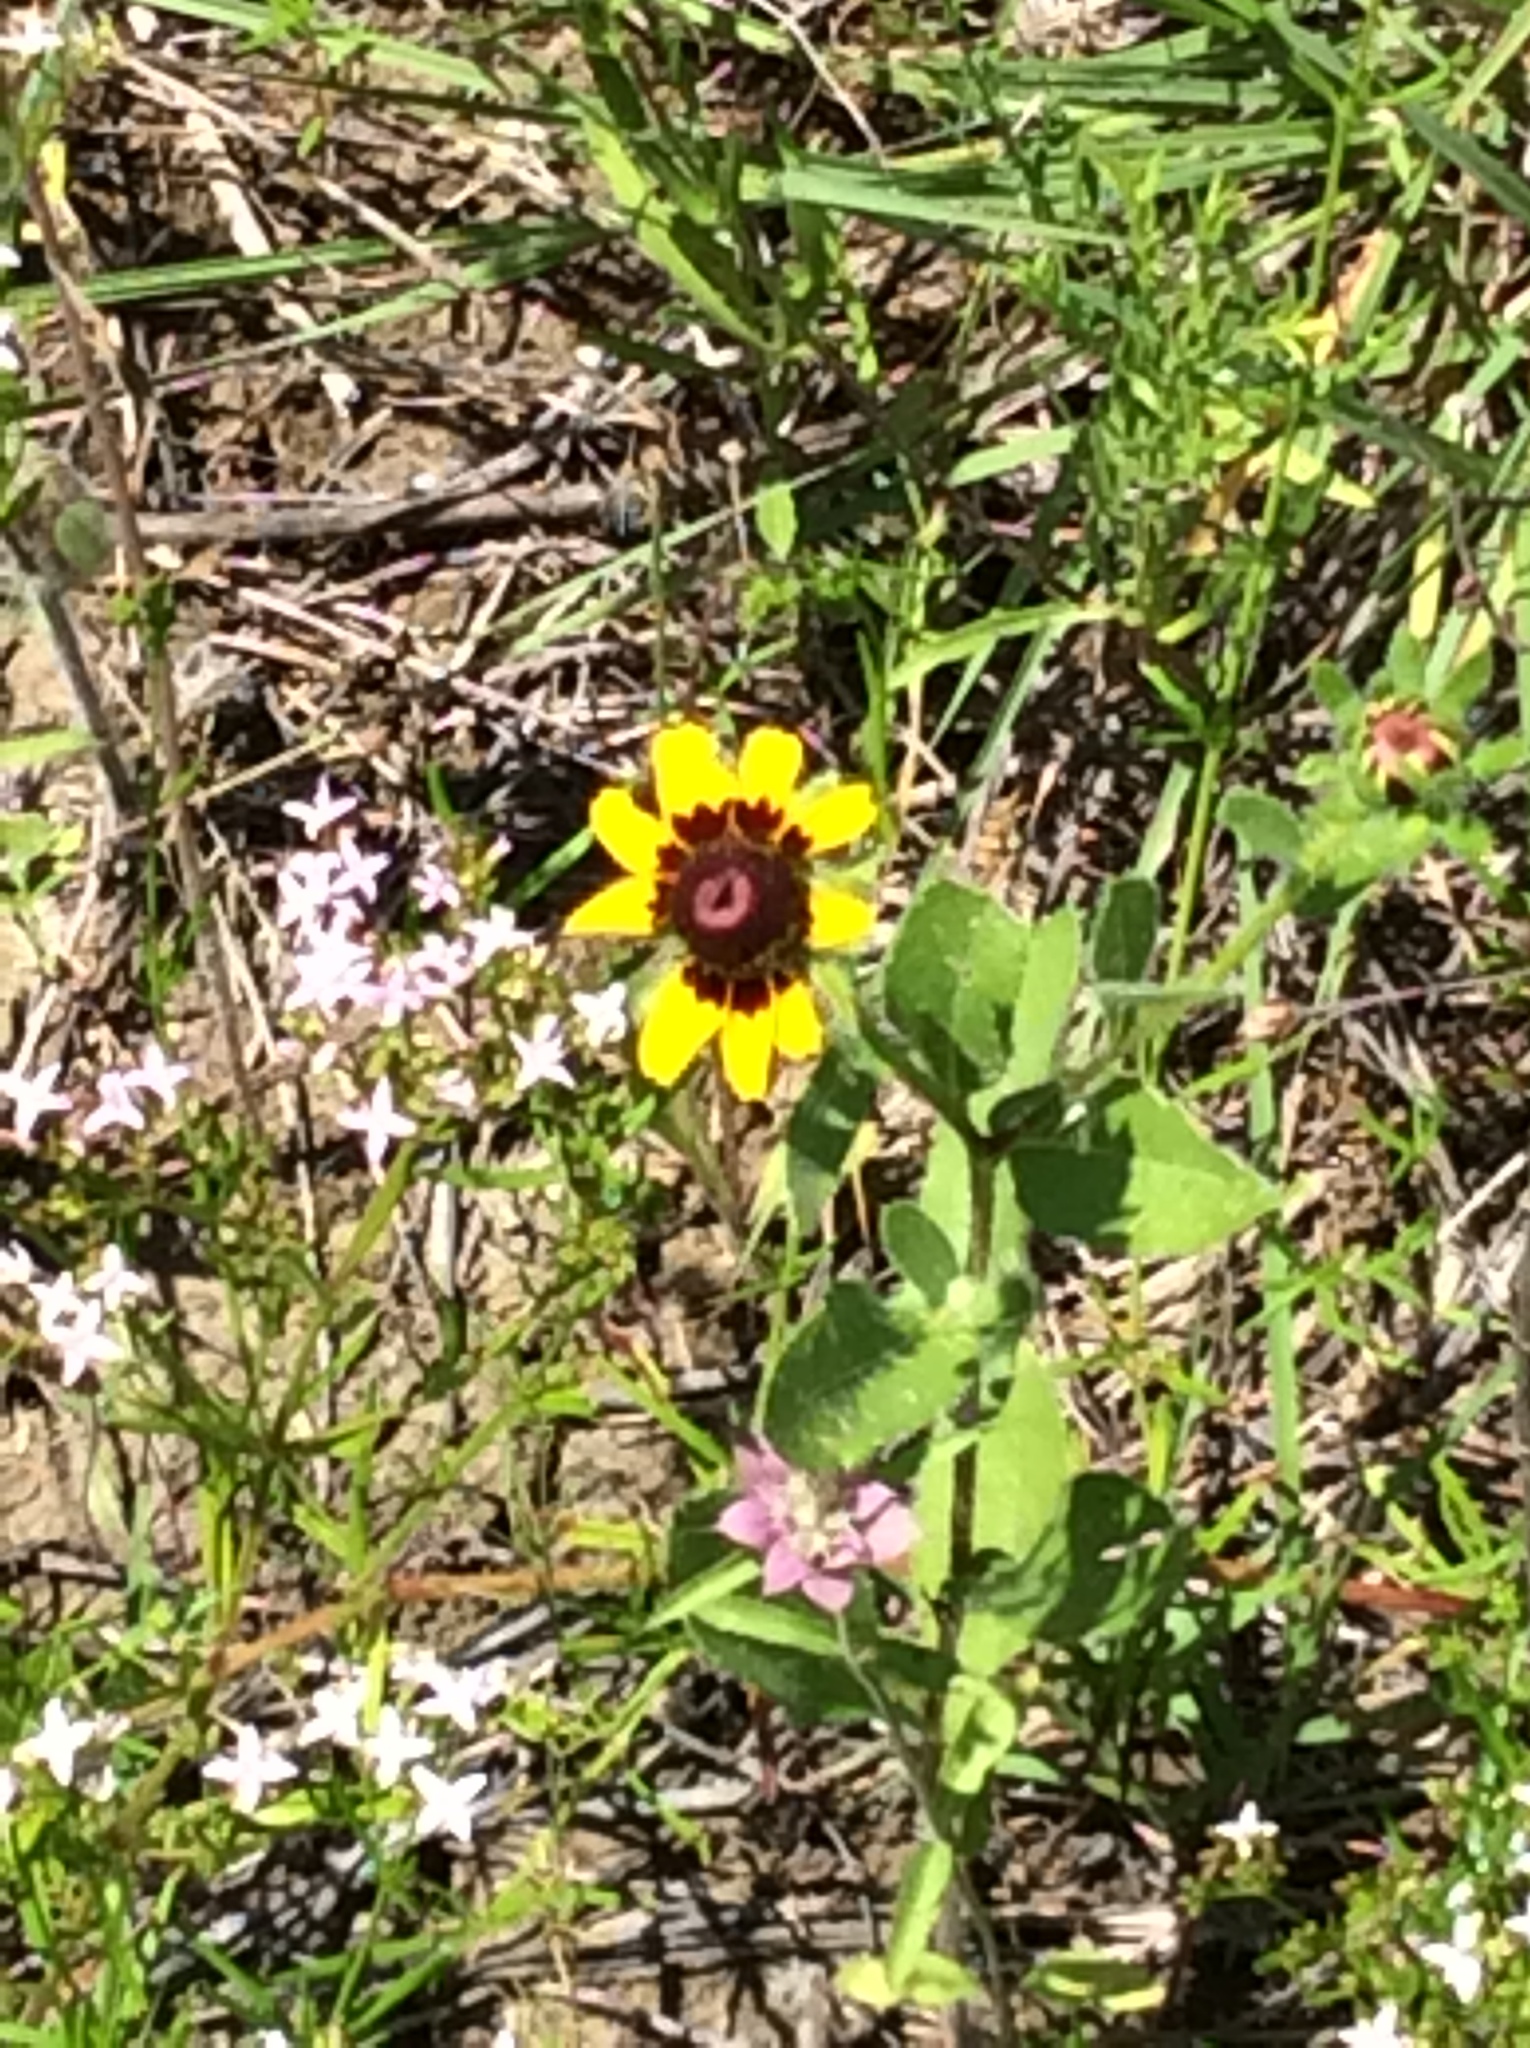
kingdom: Plantae
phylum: Tracheophyta
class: Magnoliopsida
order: Asterales
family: Asteraceae
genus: Rudbeckia
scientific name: Rudbeckia hirta
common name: Black-eyed-susan
